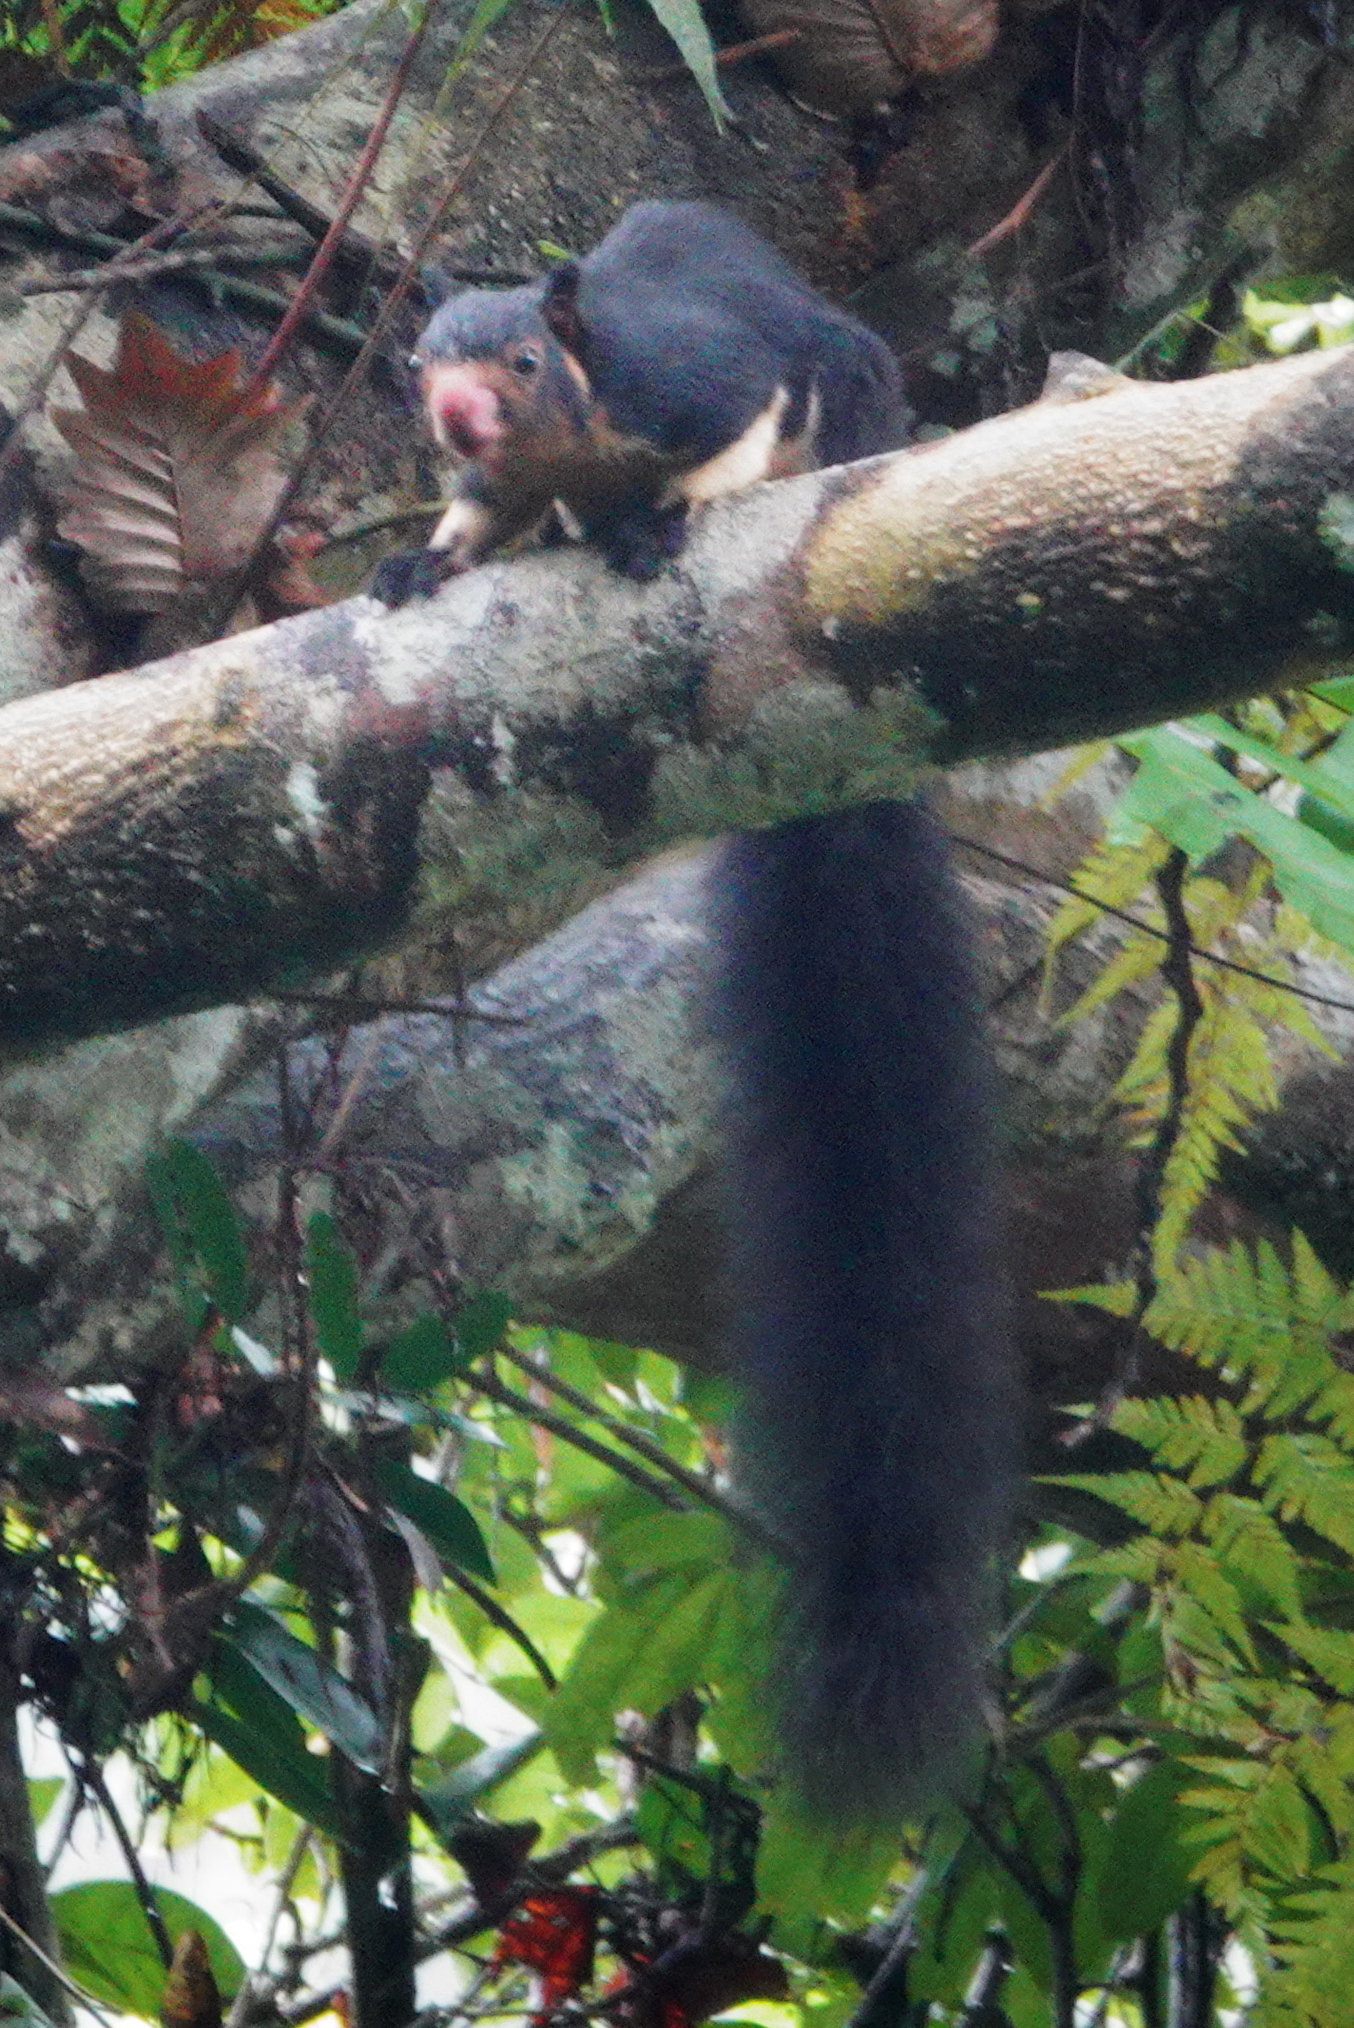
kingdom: Animalia
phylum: Chordata
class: Mammalia
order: Rodentia
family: Sciuridae
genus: Ratufa
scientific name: Ratufa macroura
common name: Sri lankan giant squirrel
